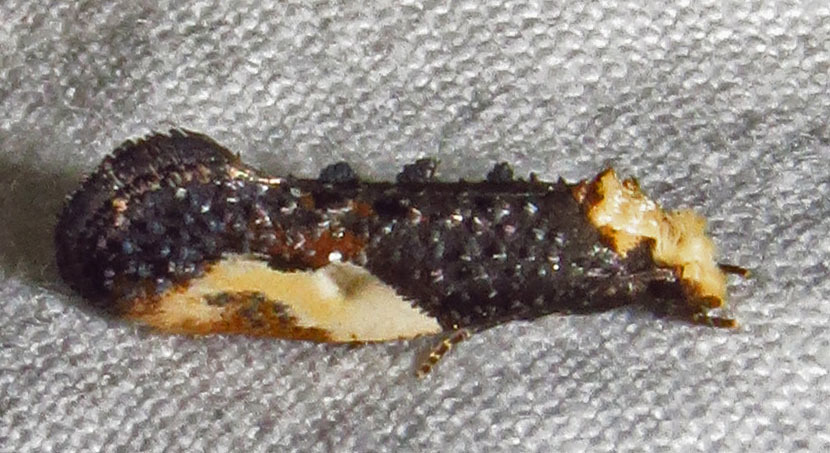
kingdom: Animalia
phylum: Arthropoda
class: Insecta
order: Lepidoptera
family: Tineidae
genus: Monopis
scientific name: Monopis longella
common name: Pavlovski's monopis moth
